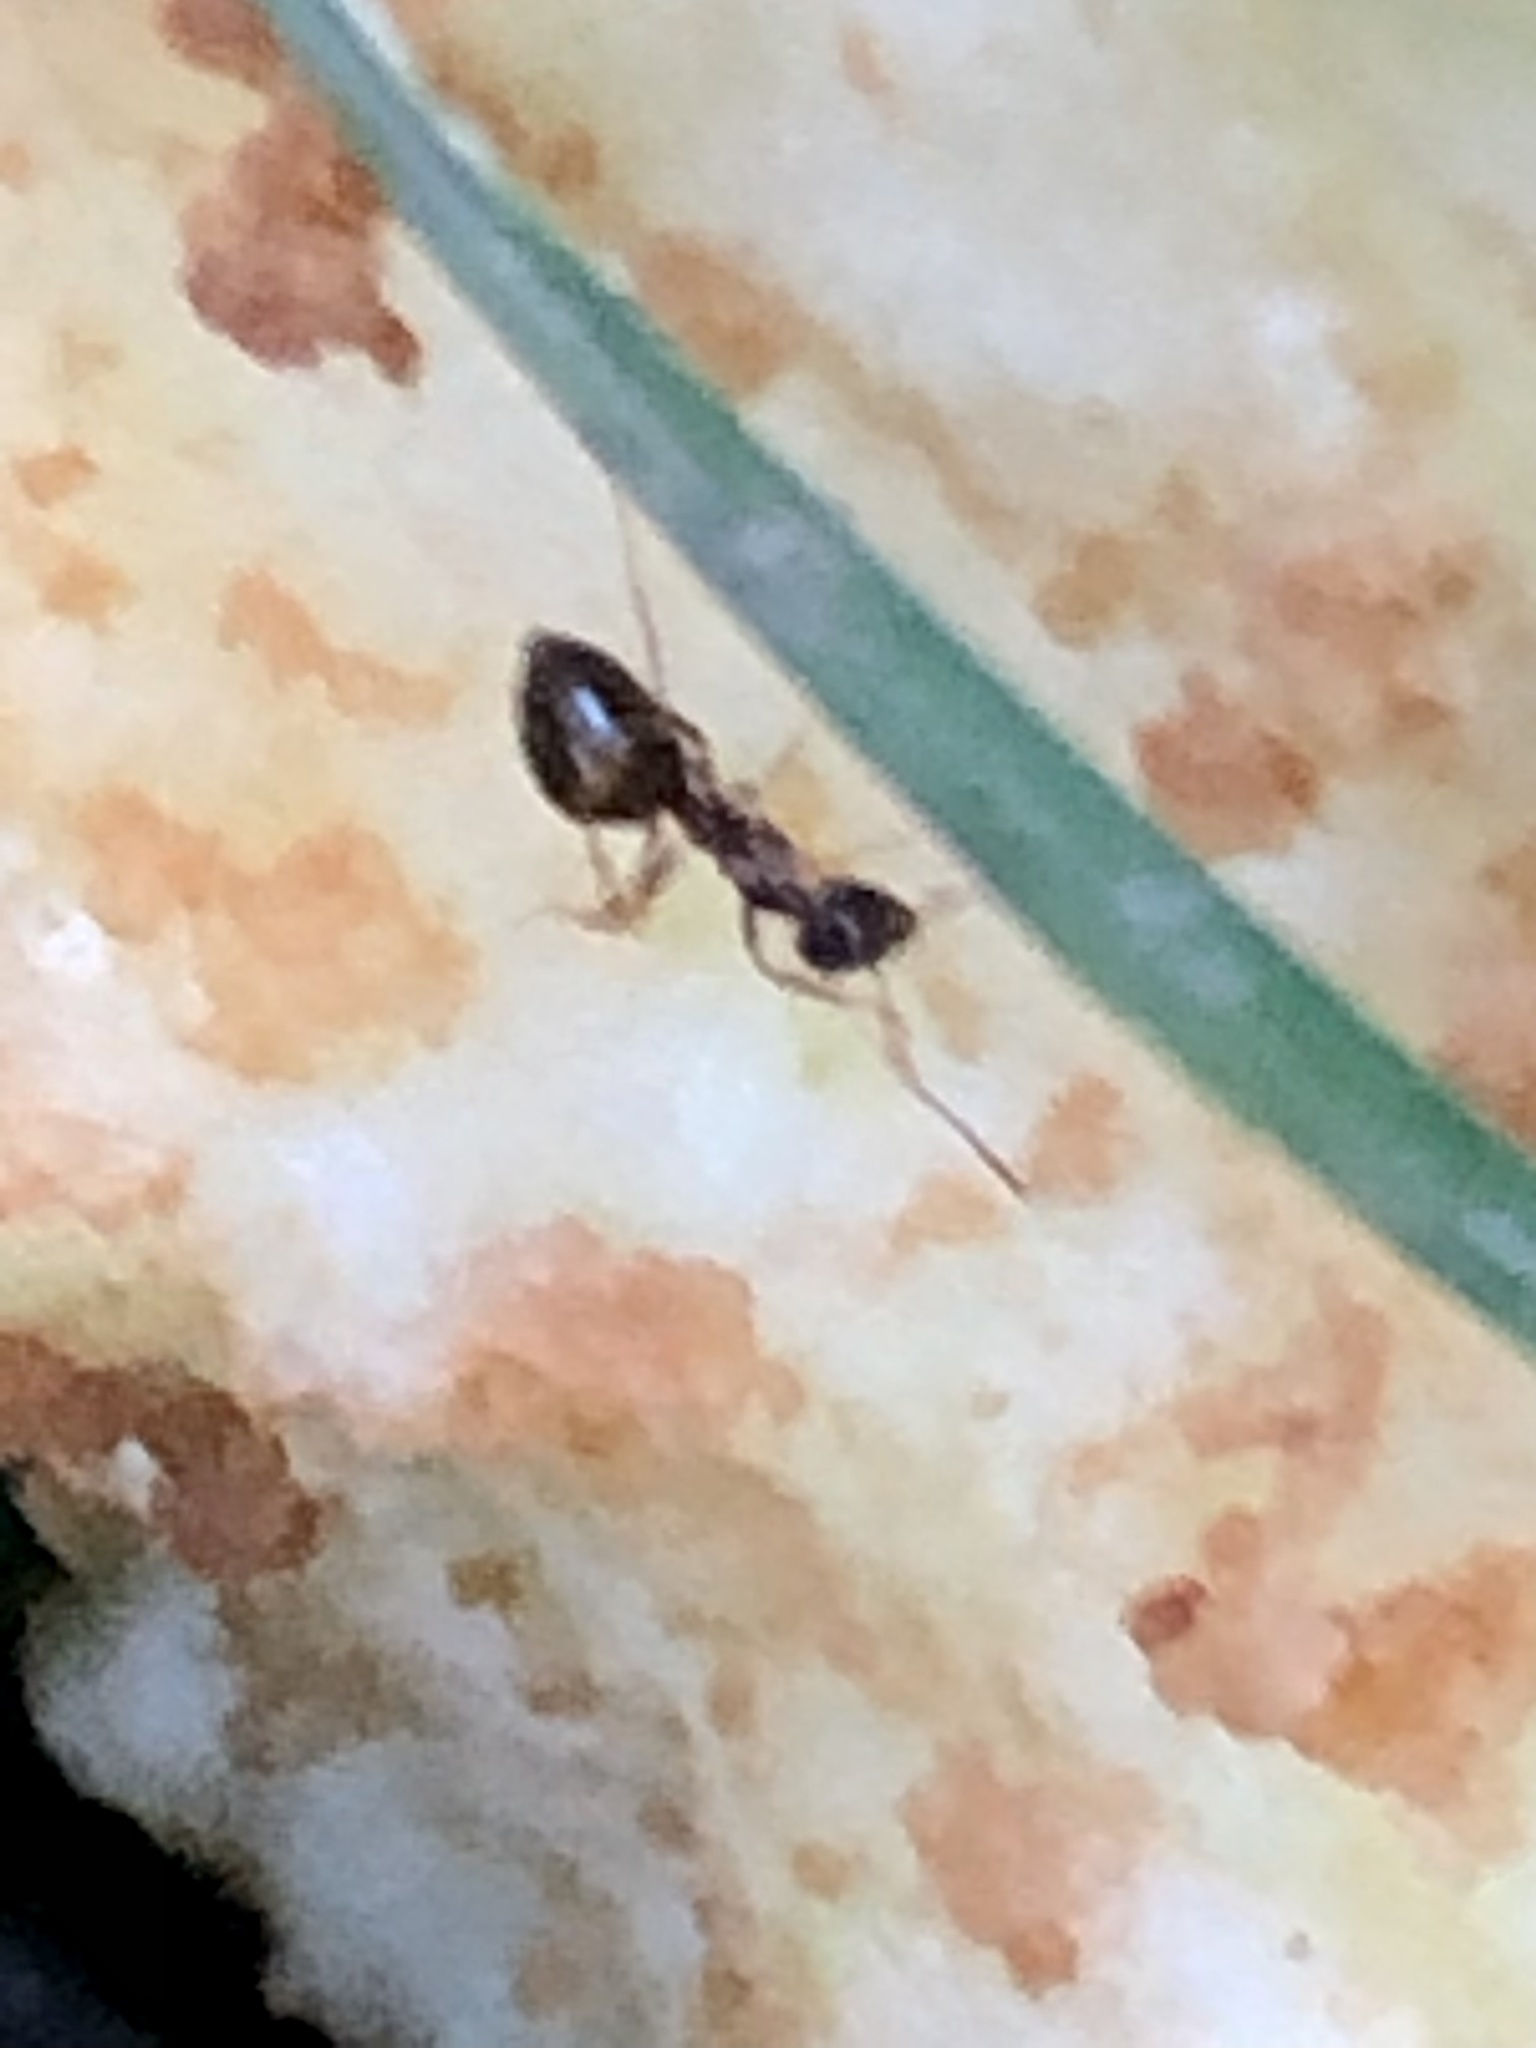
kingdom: Animalia
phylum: Arthropoda
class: Insecta
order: Hymenoptera
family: Formicidae
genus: Prenolepis
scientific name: Prenolepis imparis
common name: Small honey ant
